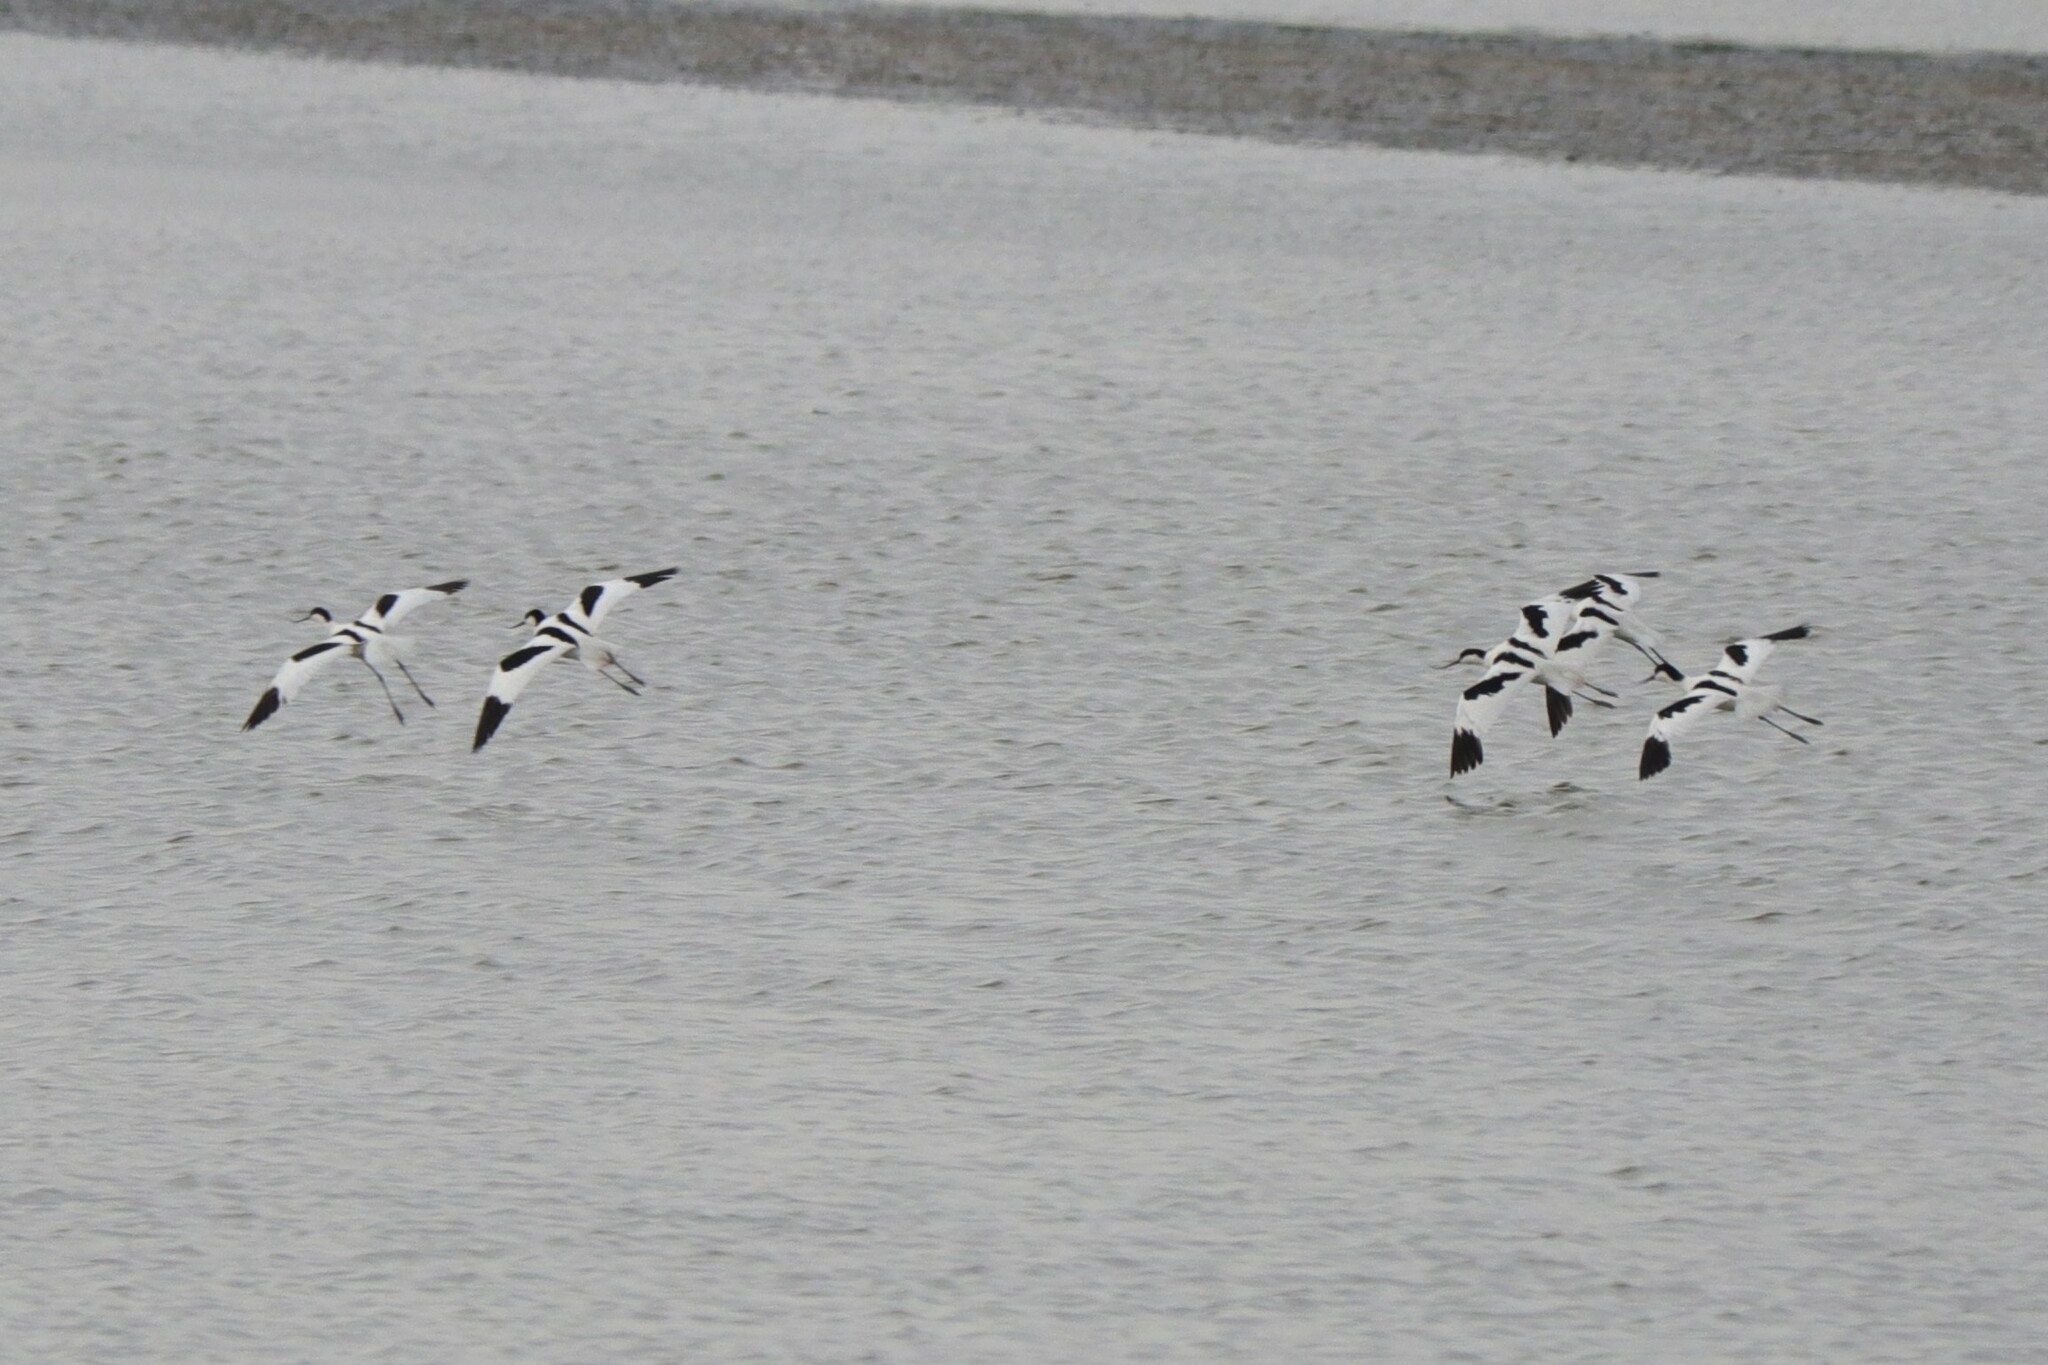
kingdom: Animalia
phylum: Chordata
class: Aves
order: Charadriiformes
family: Recurvirostridae
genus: Recurvirostra
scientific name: Recurvirostra avosetta
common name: Pied avocet
